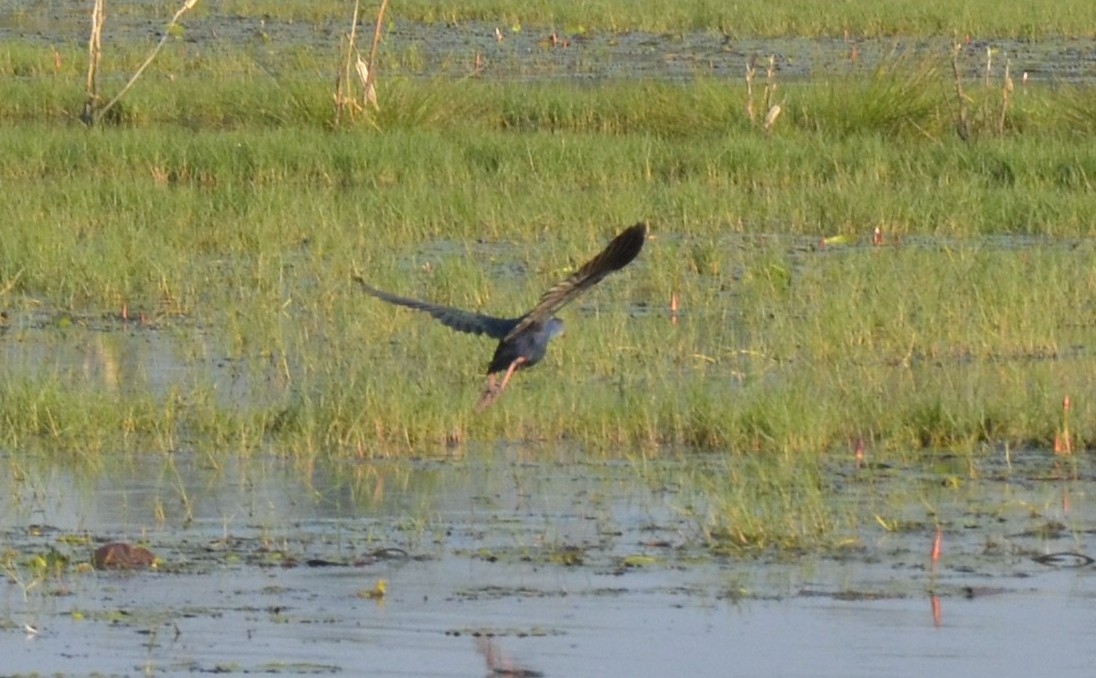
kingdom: Animalia
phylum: Chordata
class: Aves
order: Gruiformes
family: Rallidae
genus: Porphyrio
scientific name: Porphyrio porphyrio
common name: Purple swamphen
